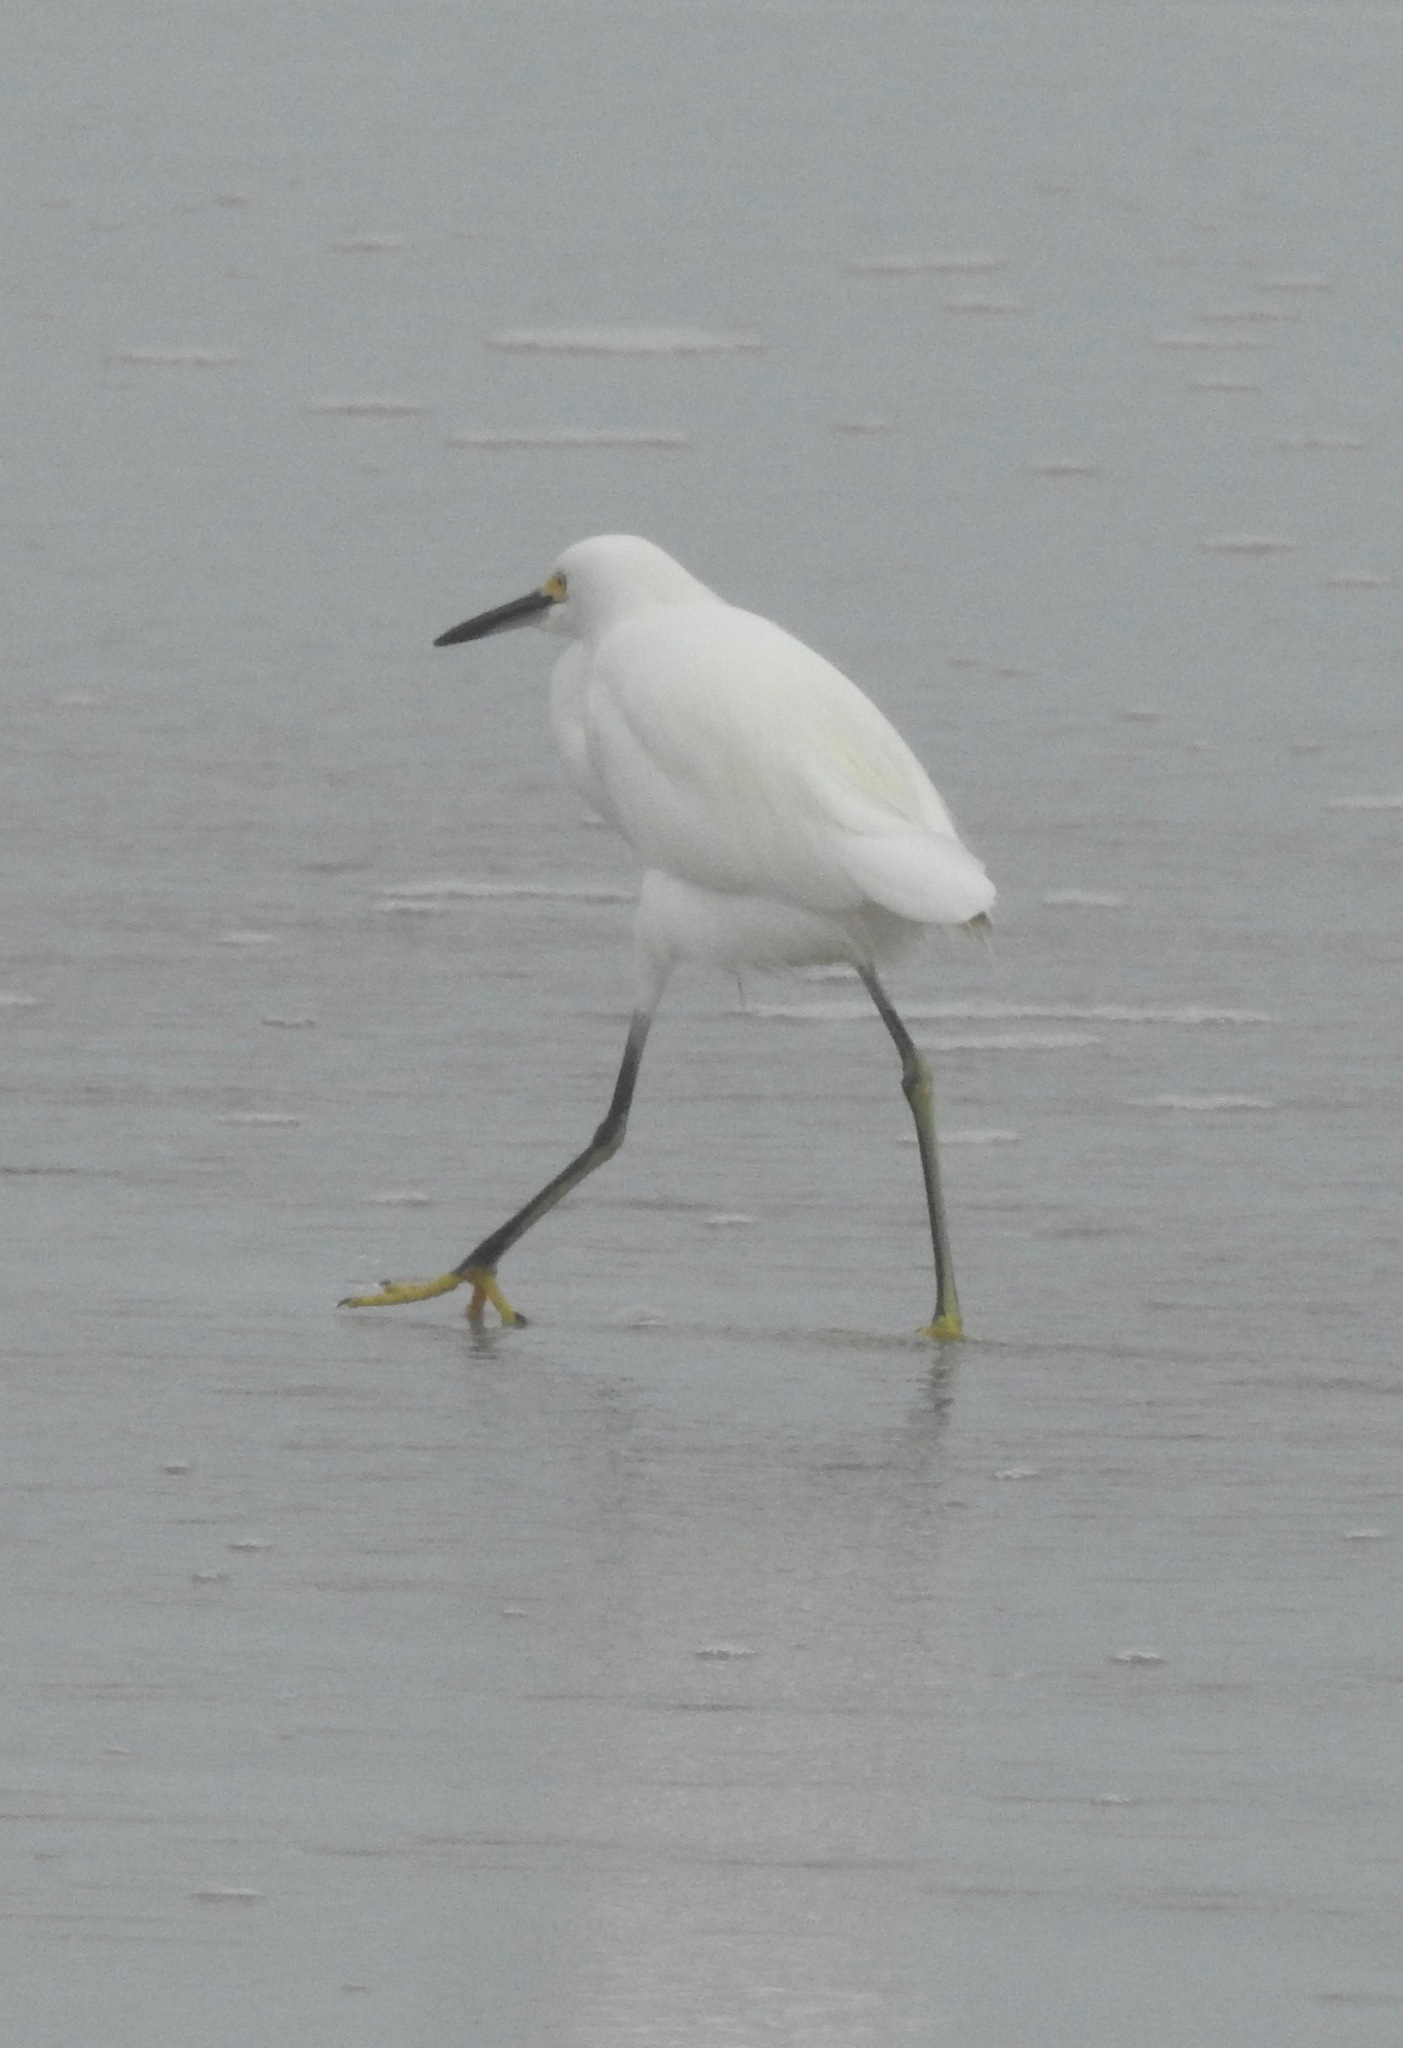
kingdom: Animalia
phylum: Chordata
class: Aves
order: Pelecaniformes
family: Ardeidae
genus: Egretta
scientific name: Egretta thula
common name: Snowy egret
